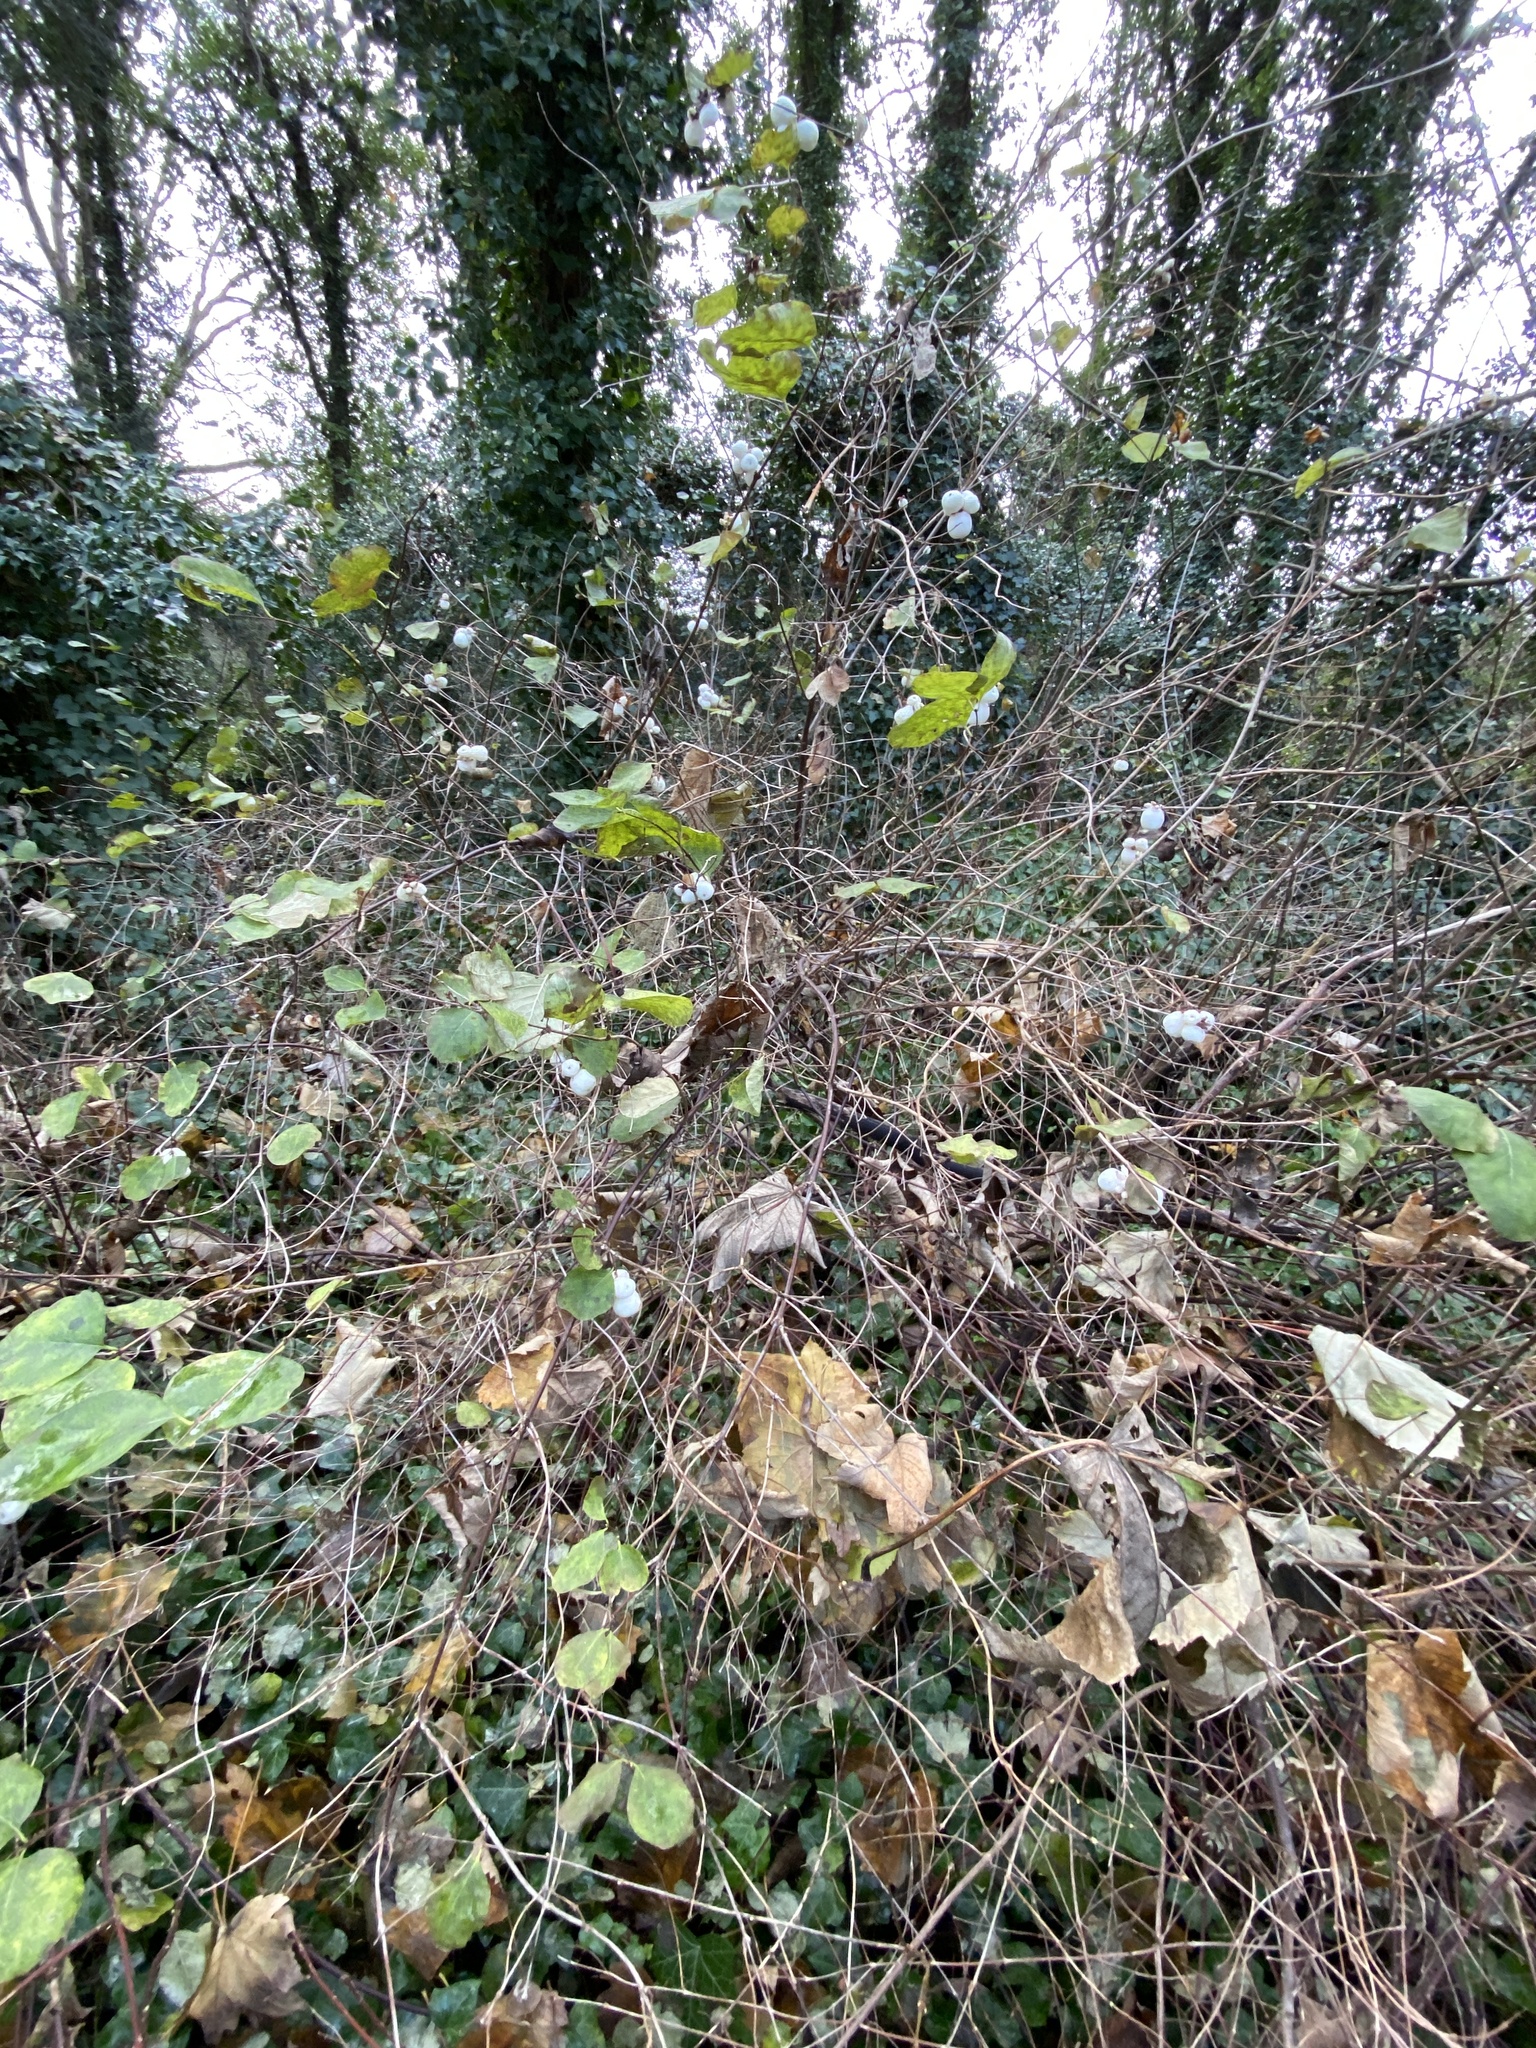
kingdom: Plantae
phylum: Tracheophyta
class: Magnoliopsida
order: Dipsacales
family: Caprifoliaceae
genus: Symphoricarpos
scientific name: Symphoricarpos albus
